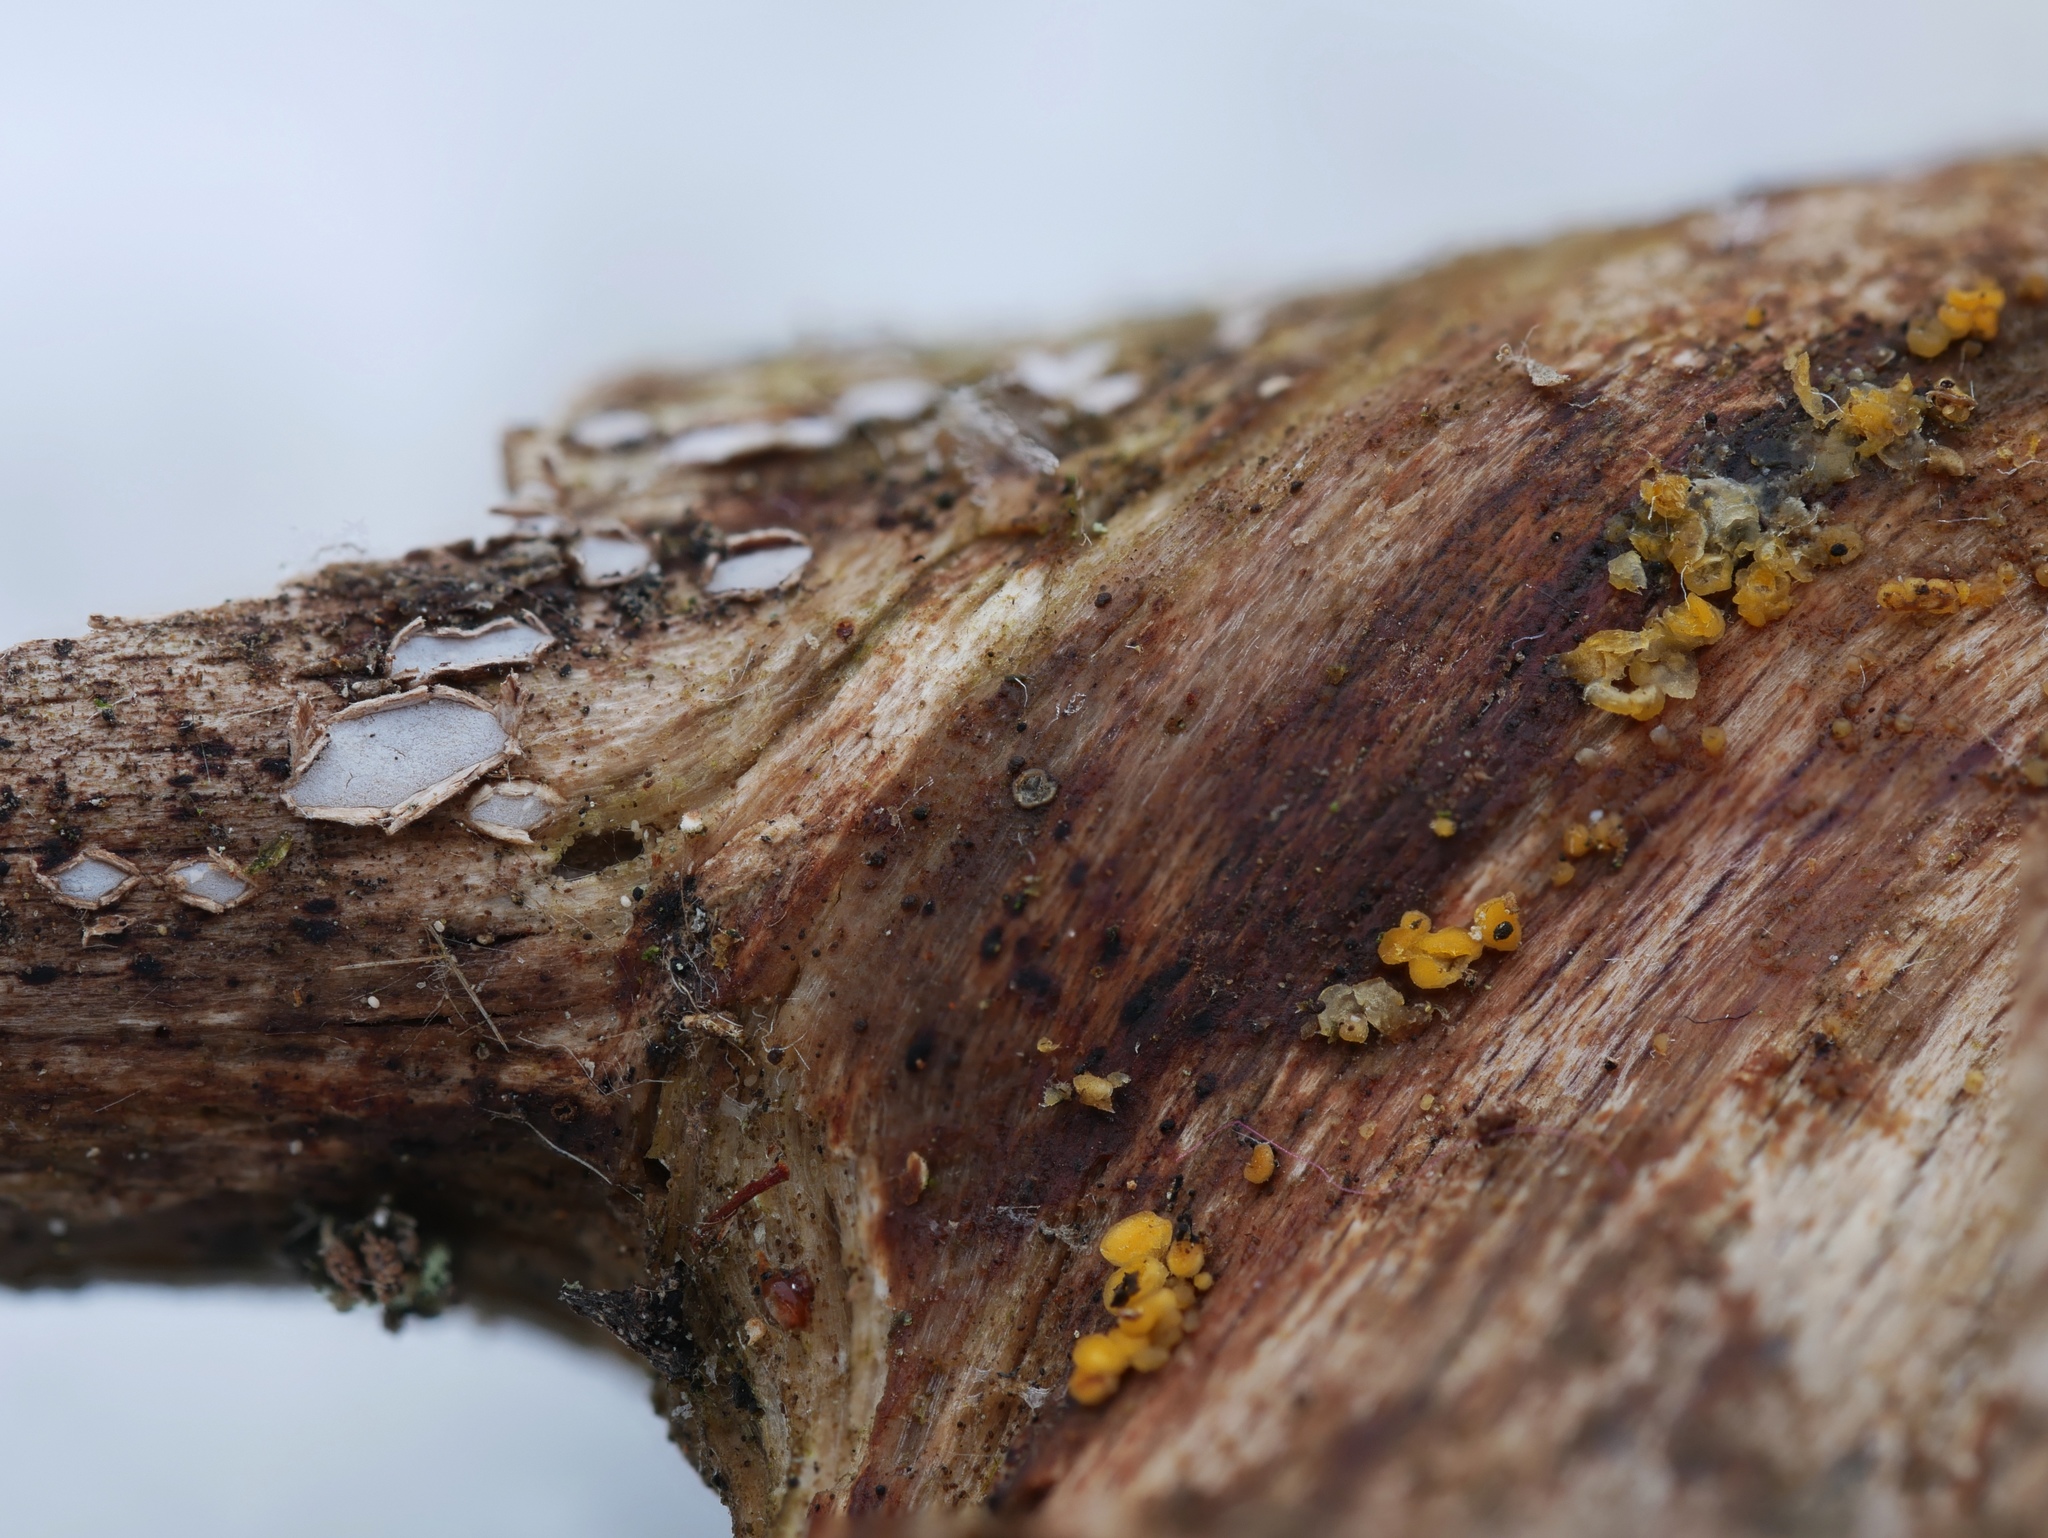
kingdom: Fungi
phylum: Ascomycota
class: Leotiomycetes
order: Chaetomellales
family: Marthamycetaceae
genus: Propolis
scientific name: Propolis farinosa
